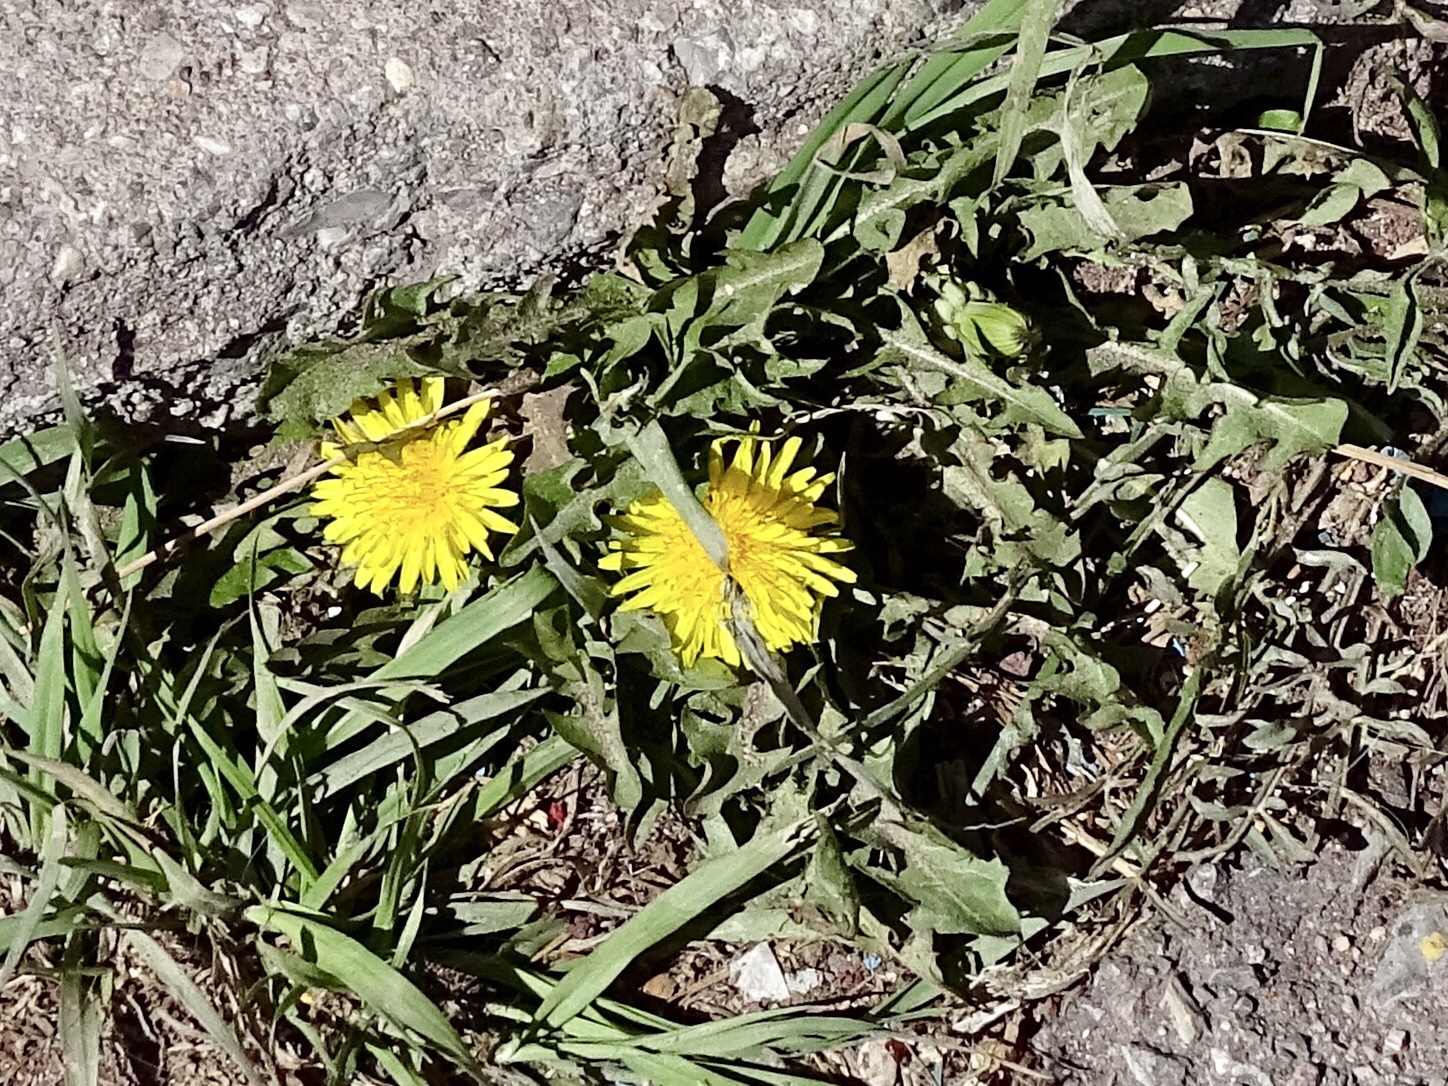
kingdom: Plantae
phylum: Tracheophyta
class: Magnoliopsida
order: Asterales
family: Asteraceae
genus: Taraxacum
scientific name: Taraxacum officinale
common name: Common dandelion
